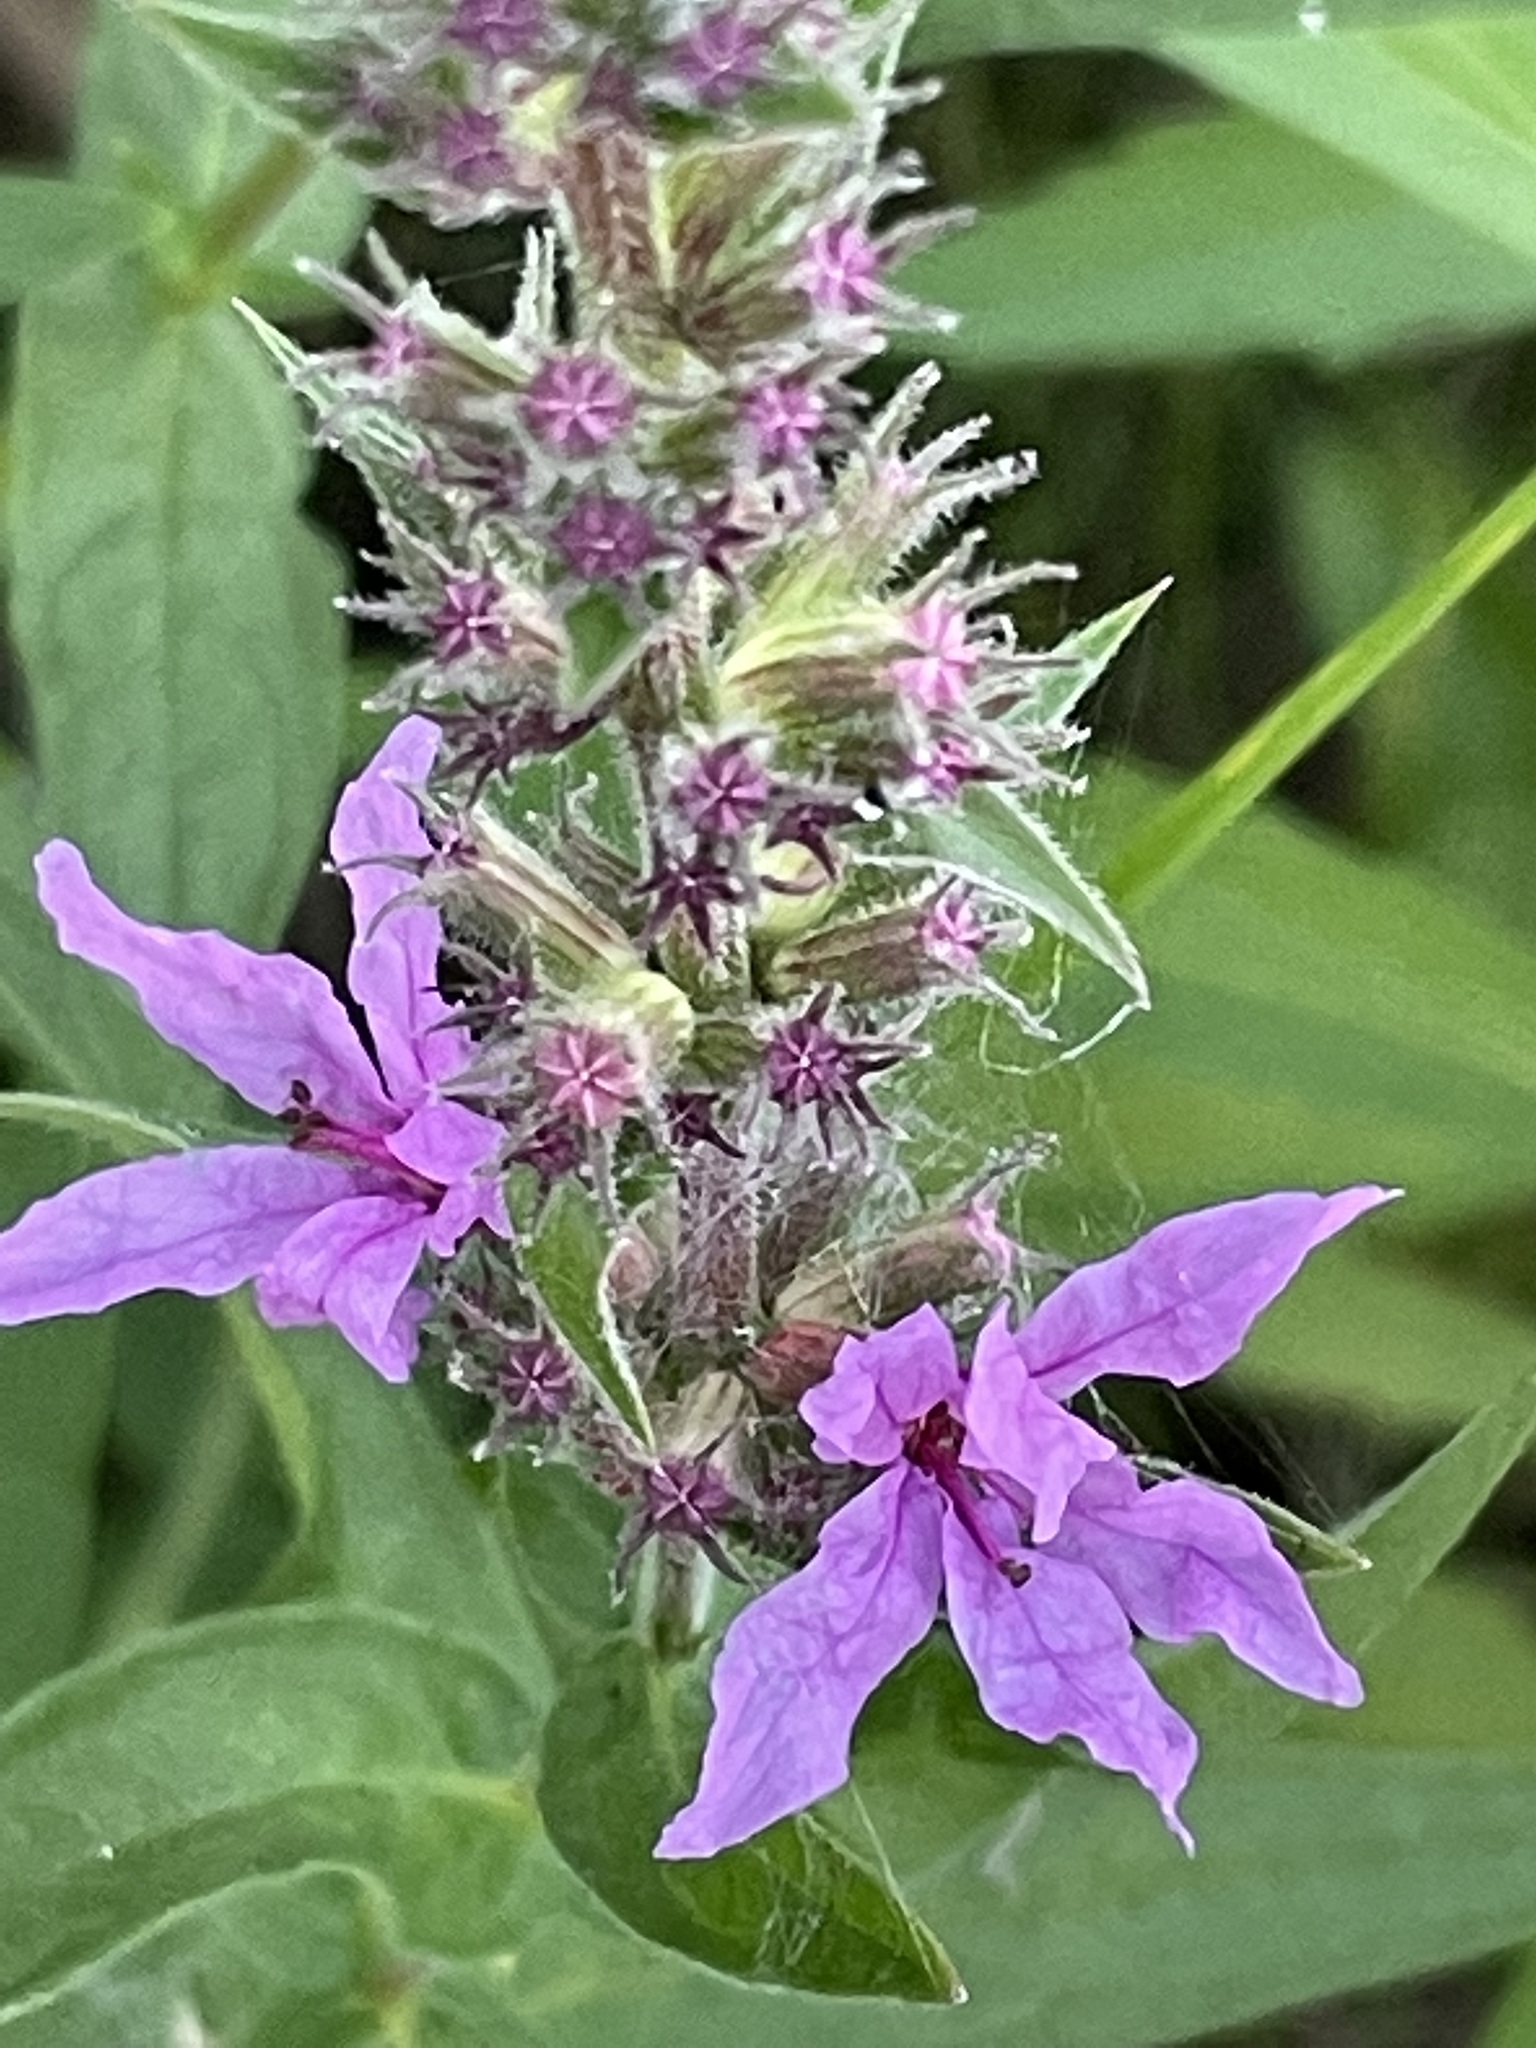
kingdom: Plantae
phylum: Tracheophyta
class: Magnoliopsida
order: Myrtales
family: Lythraceae
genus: Lythrum
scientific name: Lythrum salicaria
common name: Purple loosestrife
